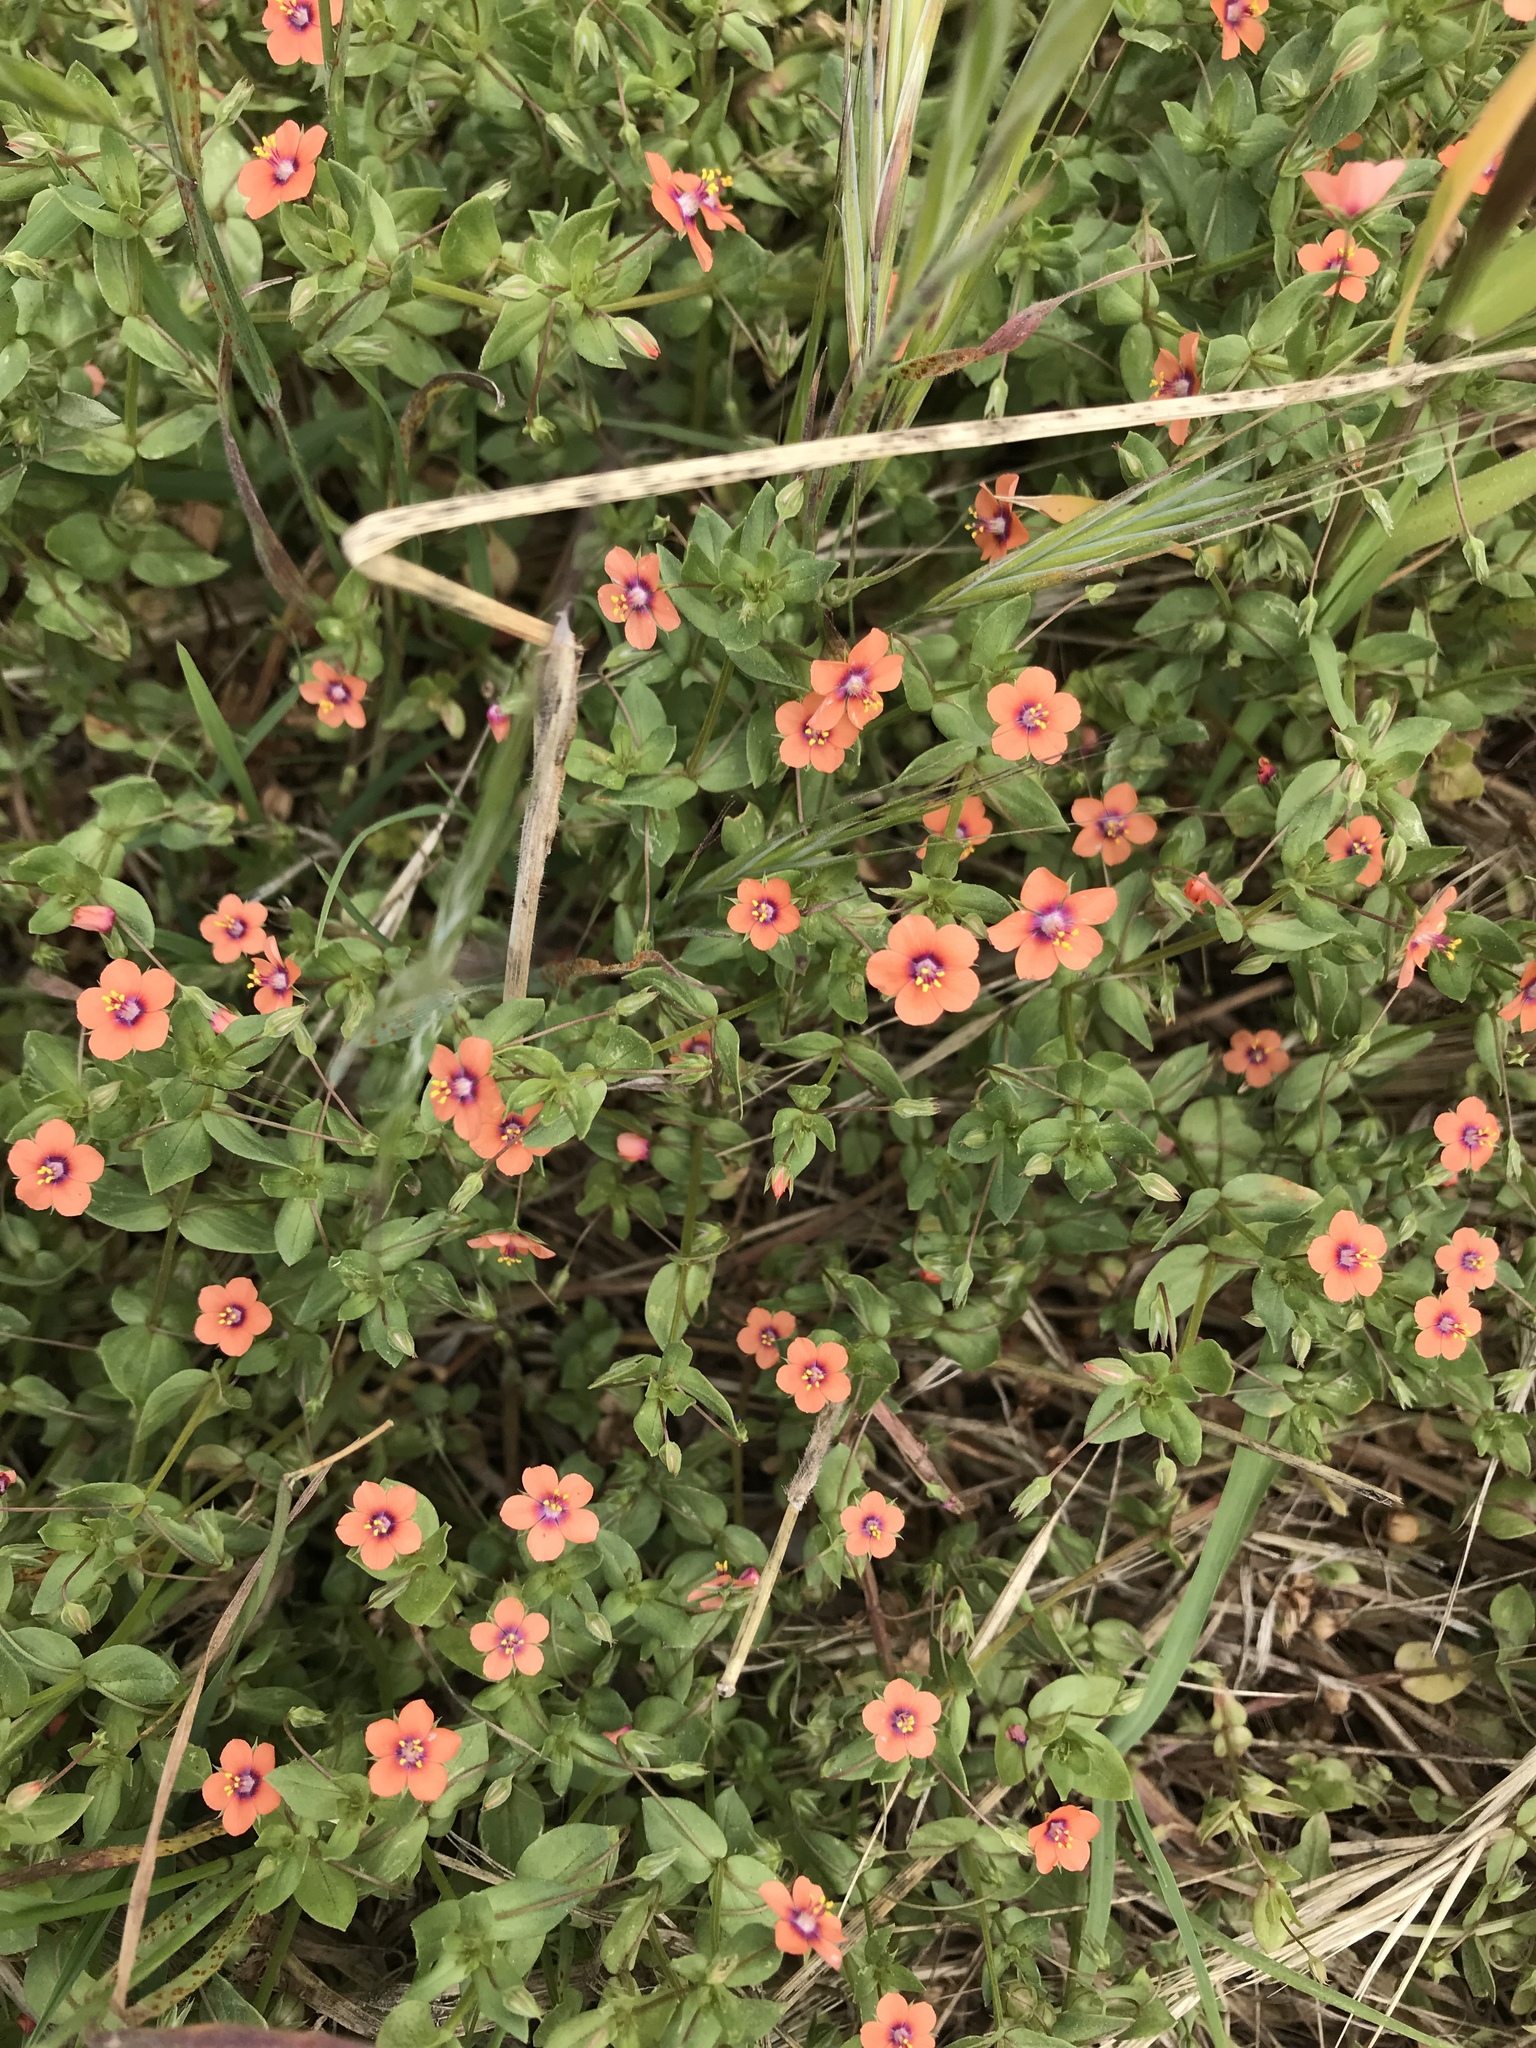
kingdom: Plantae
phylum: Tracheophyta
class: Magnoliopsida
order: Ericales
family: Primulaceae
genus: Lysimachia
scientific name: Lysimachia arvensis
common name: Scarlet pimpernel
